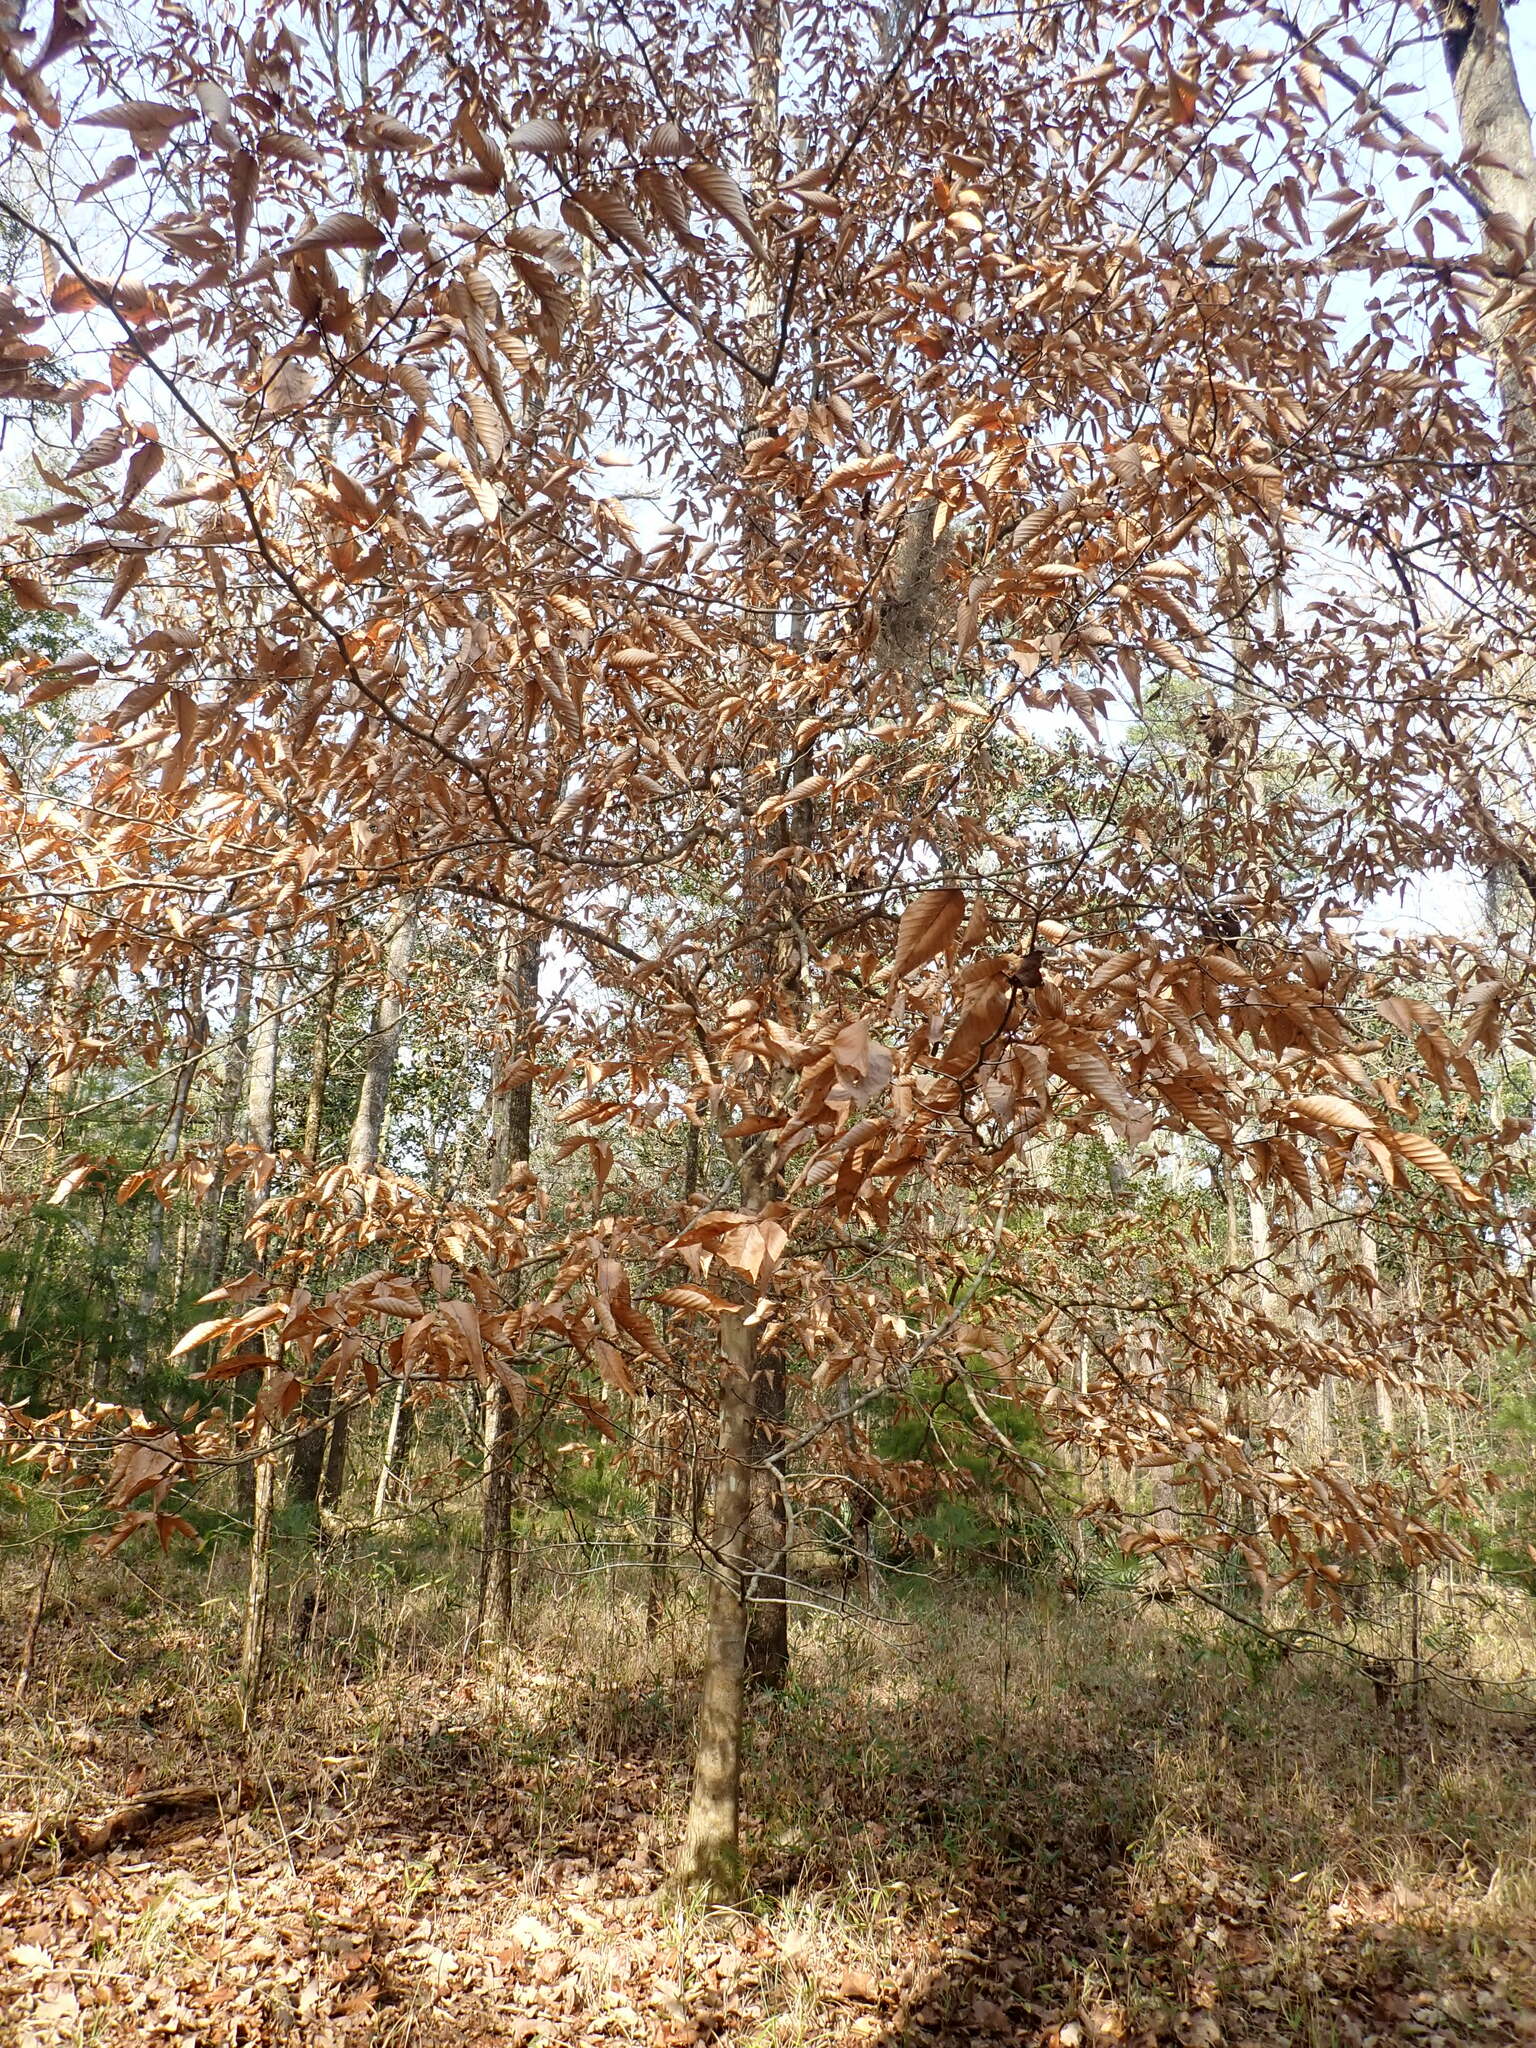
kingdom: Plantae
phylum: Tracheophyta
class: Magnoliopsida
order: Fagales
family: Fagaceae
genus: Fagus
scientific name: Fagus grandifolia
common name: American beech
